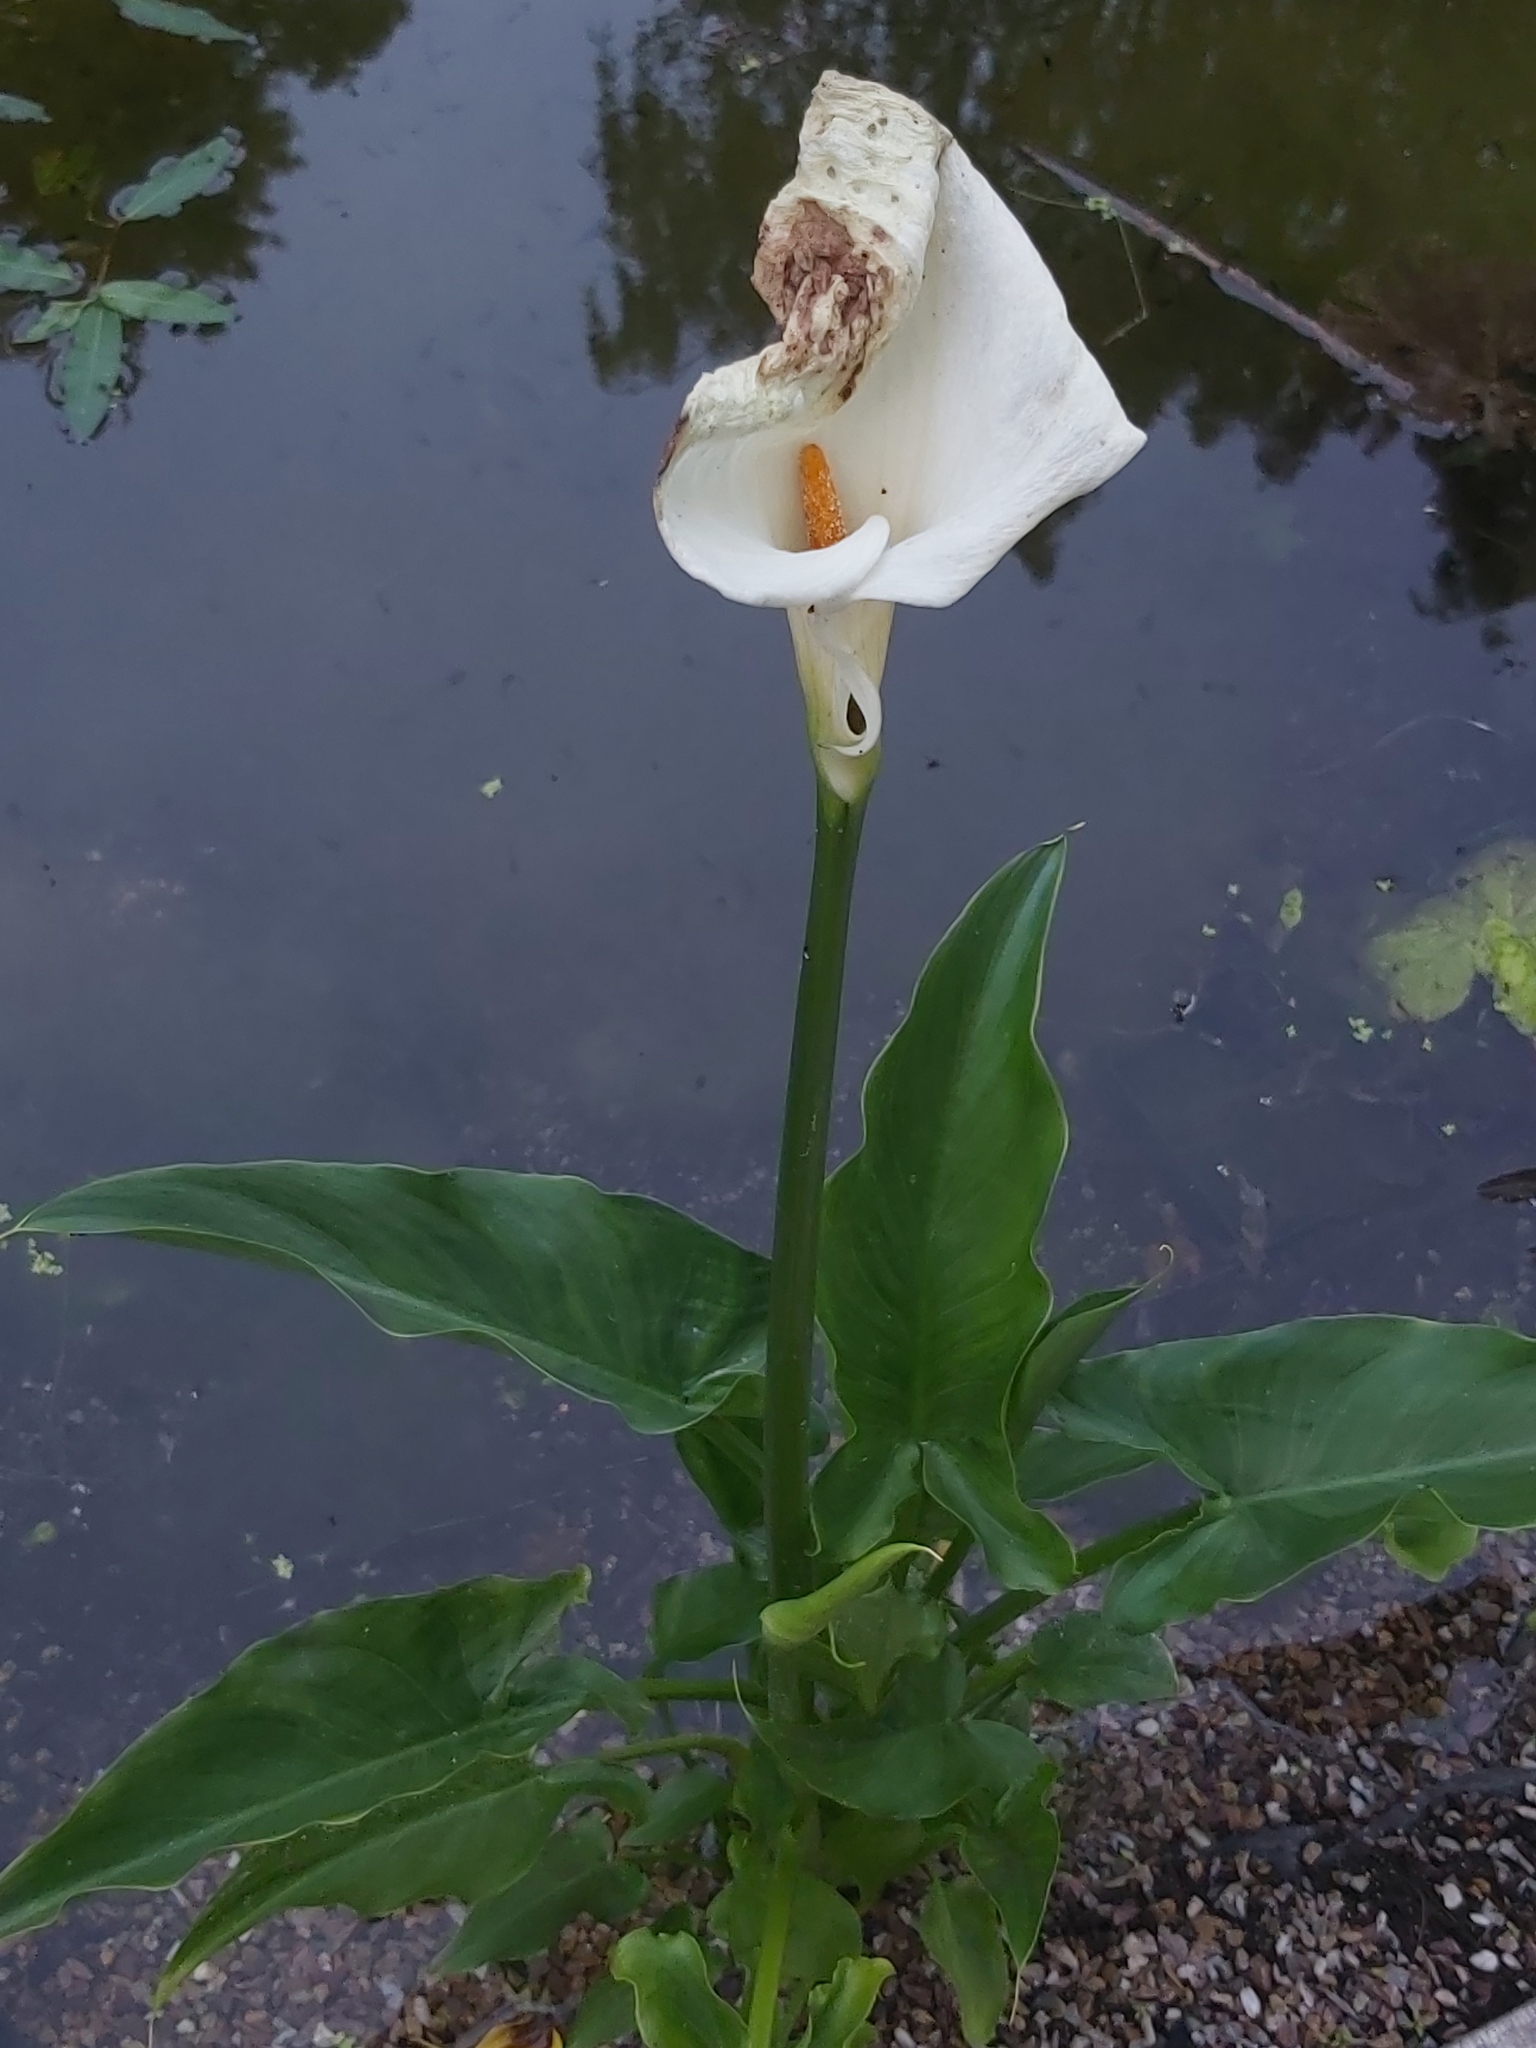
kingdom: Plantae
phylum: Tracheophyta
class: Liliopsida
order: Alismatales
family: Araceae
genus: Zantedeschia
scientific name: Zantedeschia aethiopica
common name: Altar-lily
